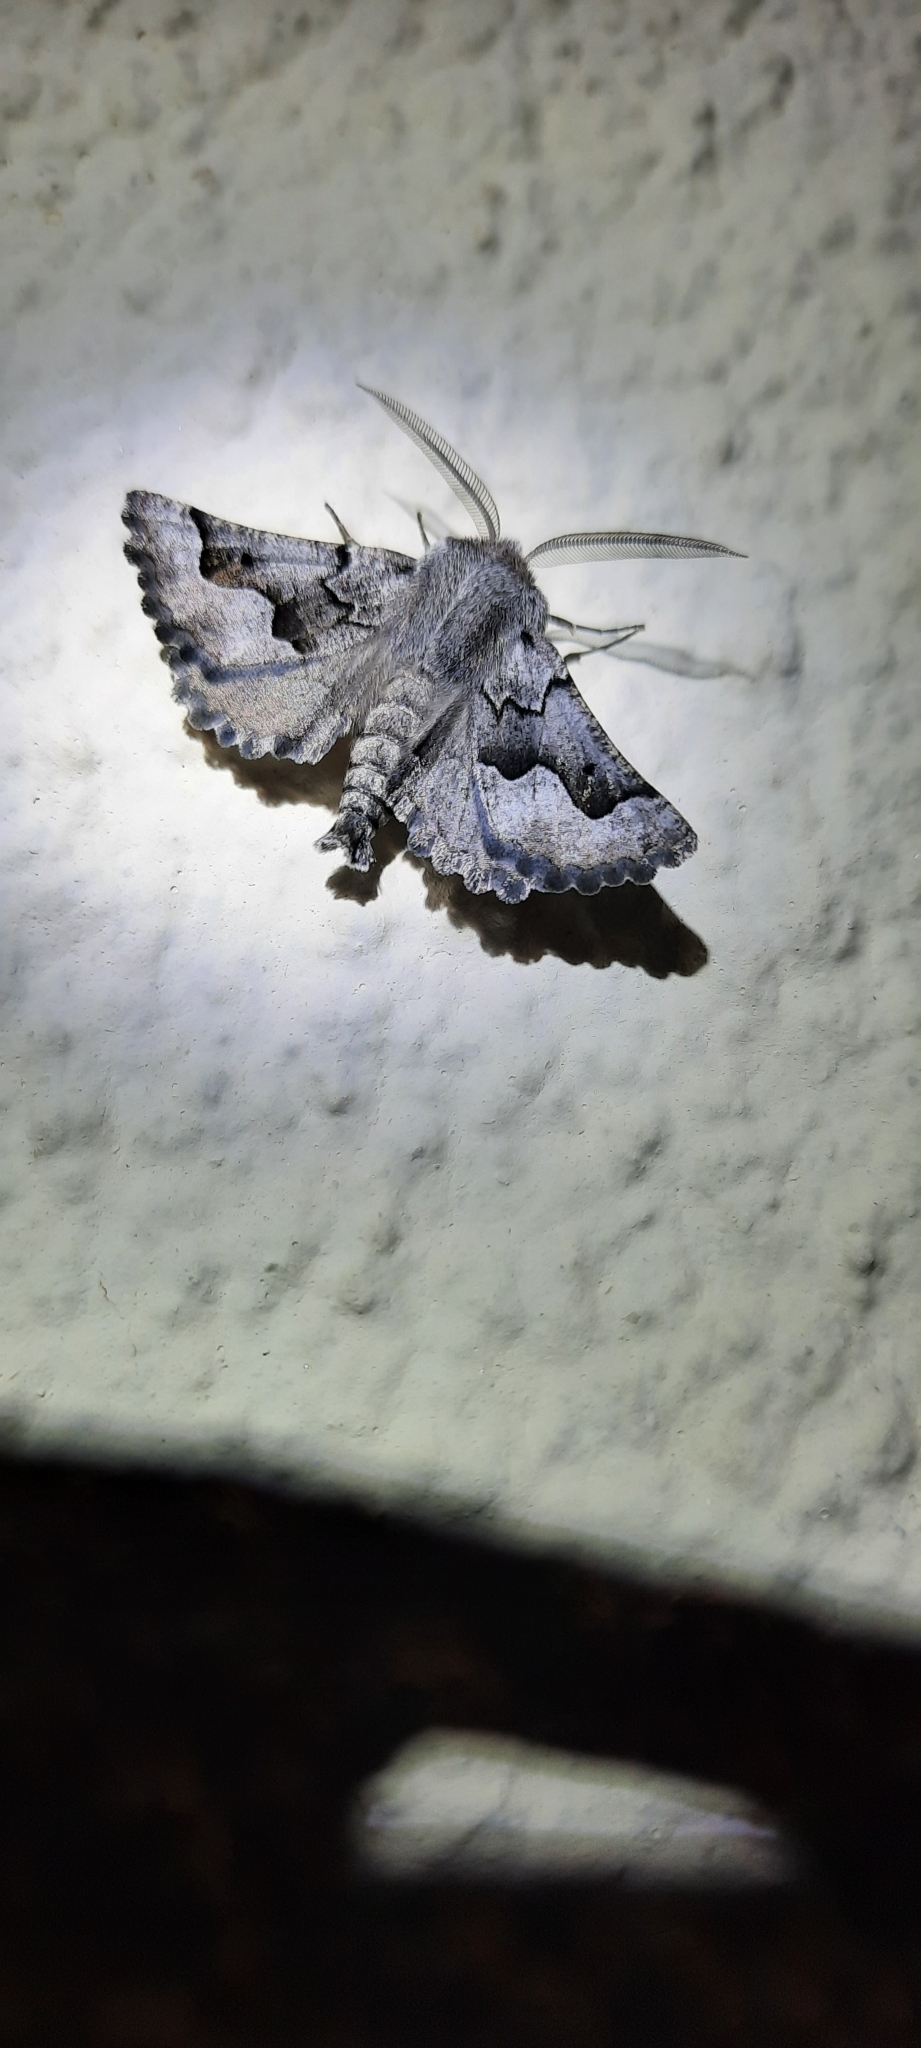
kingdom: Animalia
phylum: Arthropoda
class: Insecta
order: Lepidoptera
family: Geometridae
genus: Axiodes
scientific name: Axiodes figurata
